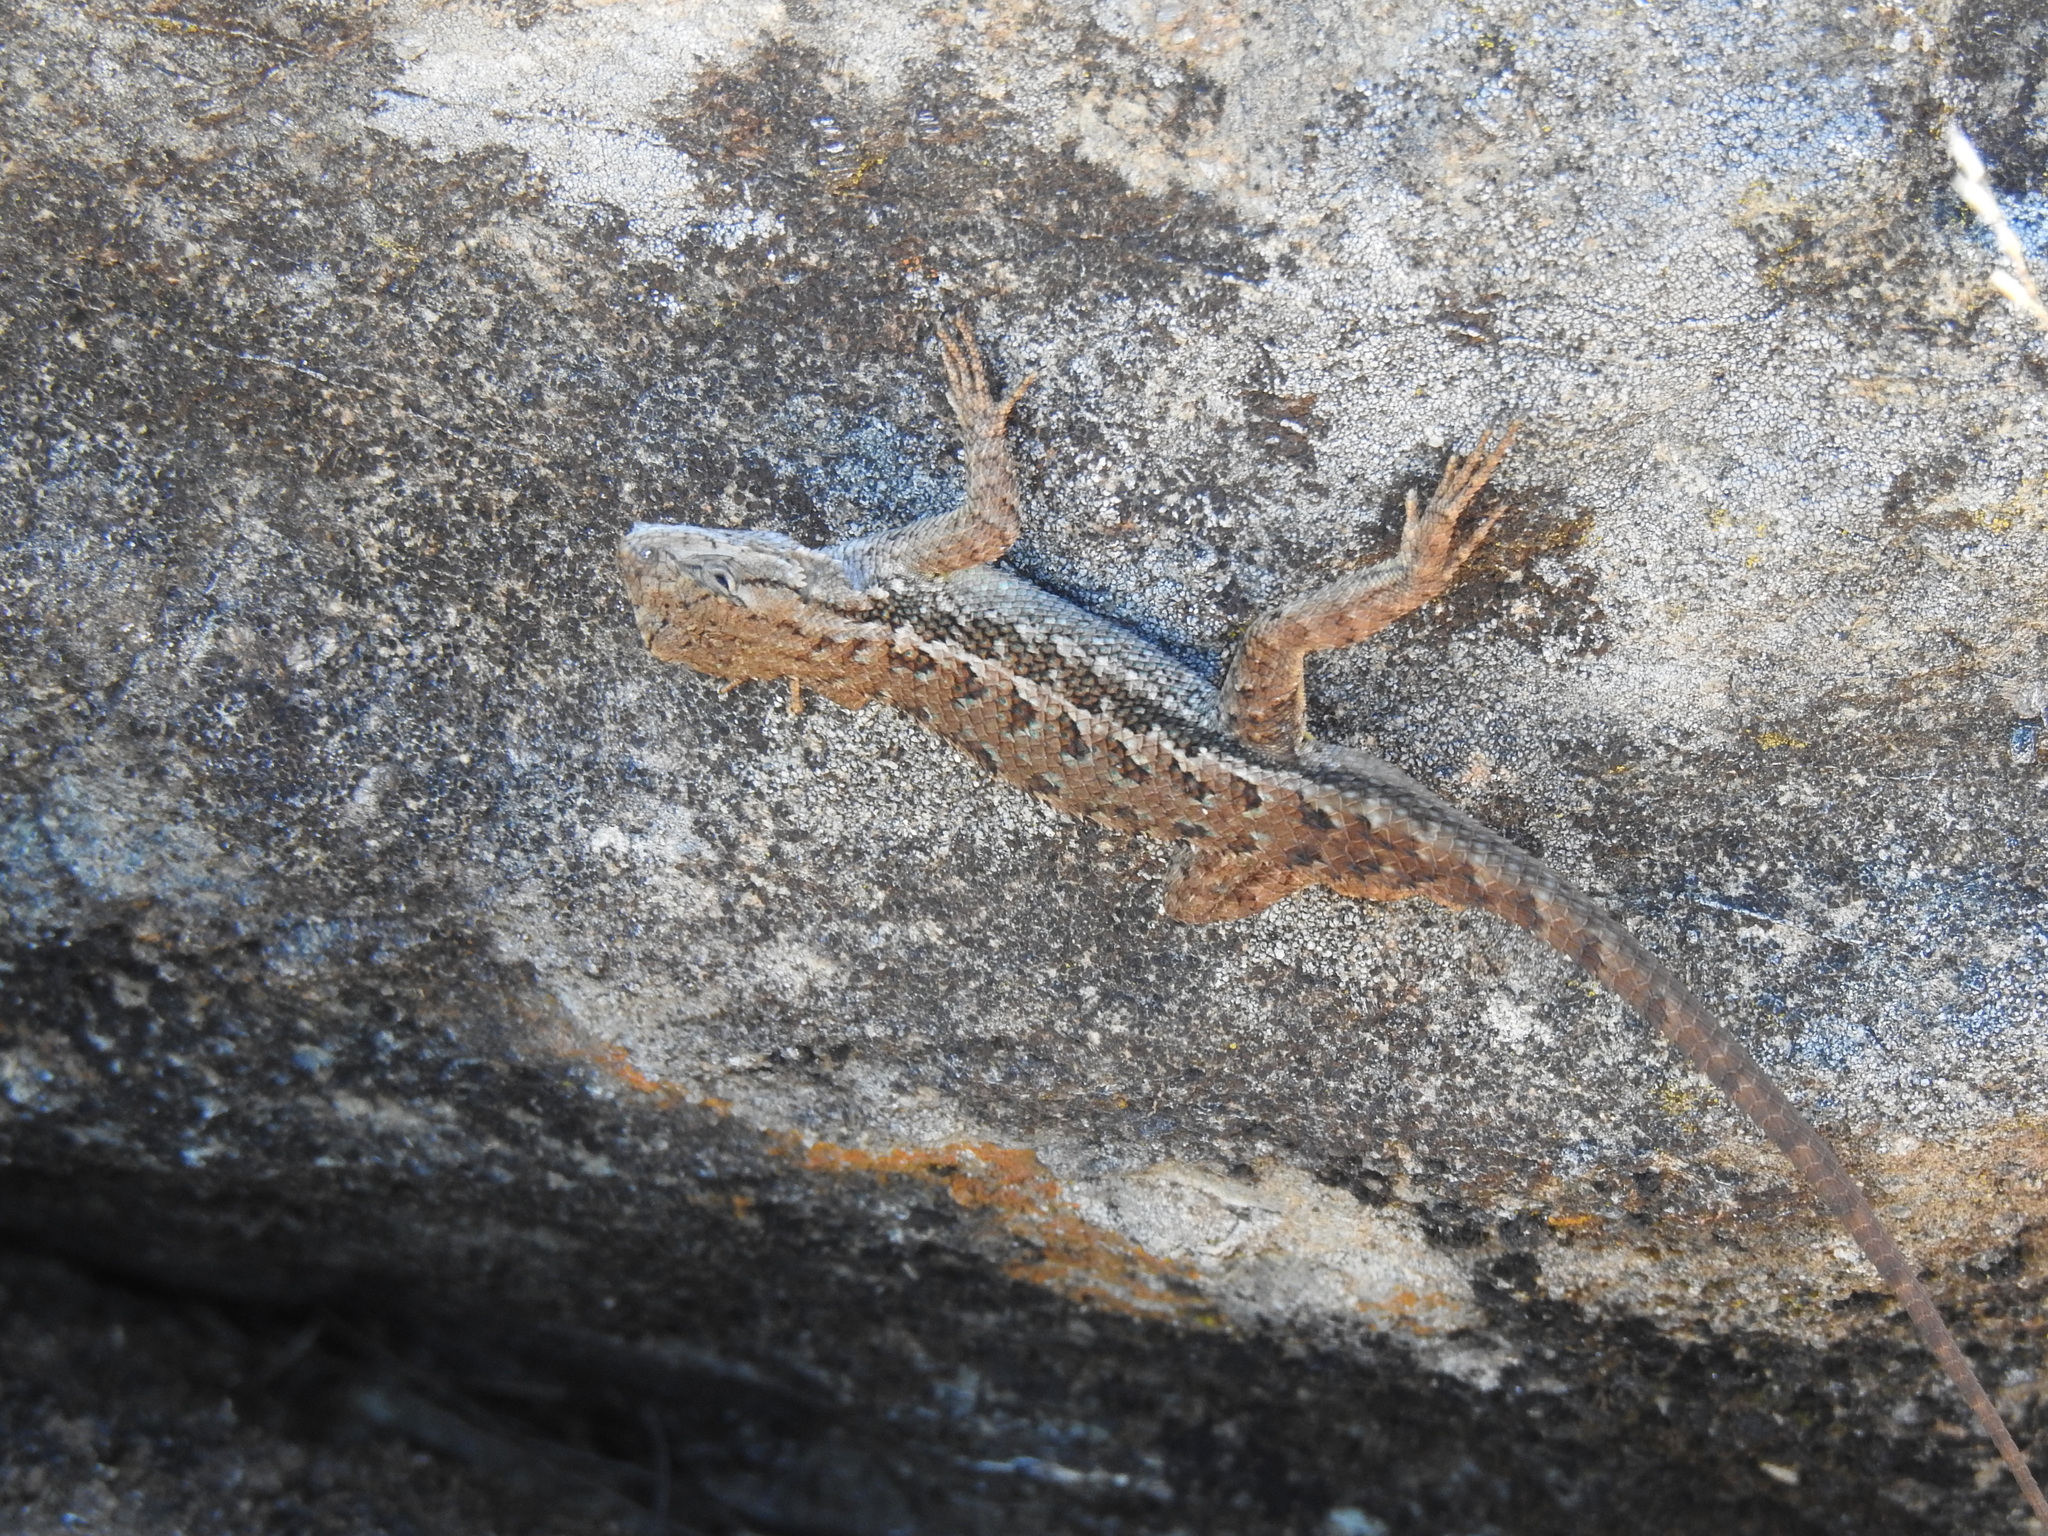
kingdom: Animalia
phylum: Chordata
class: Squamata
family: Phrynosomatidae
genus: Sceloporus
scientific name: Sceloporus occidentalis
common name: Western fence lizard
